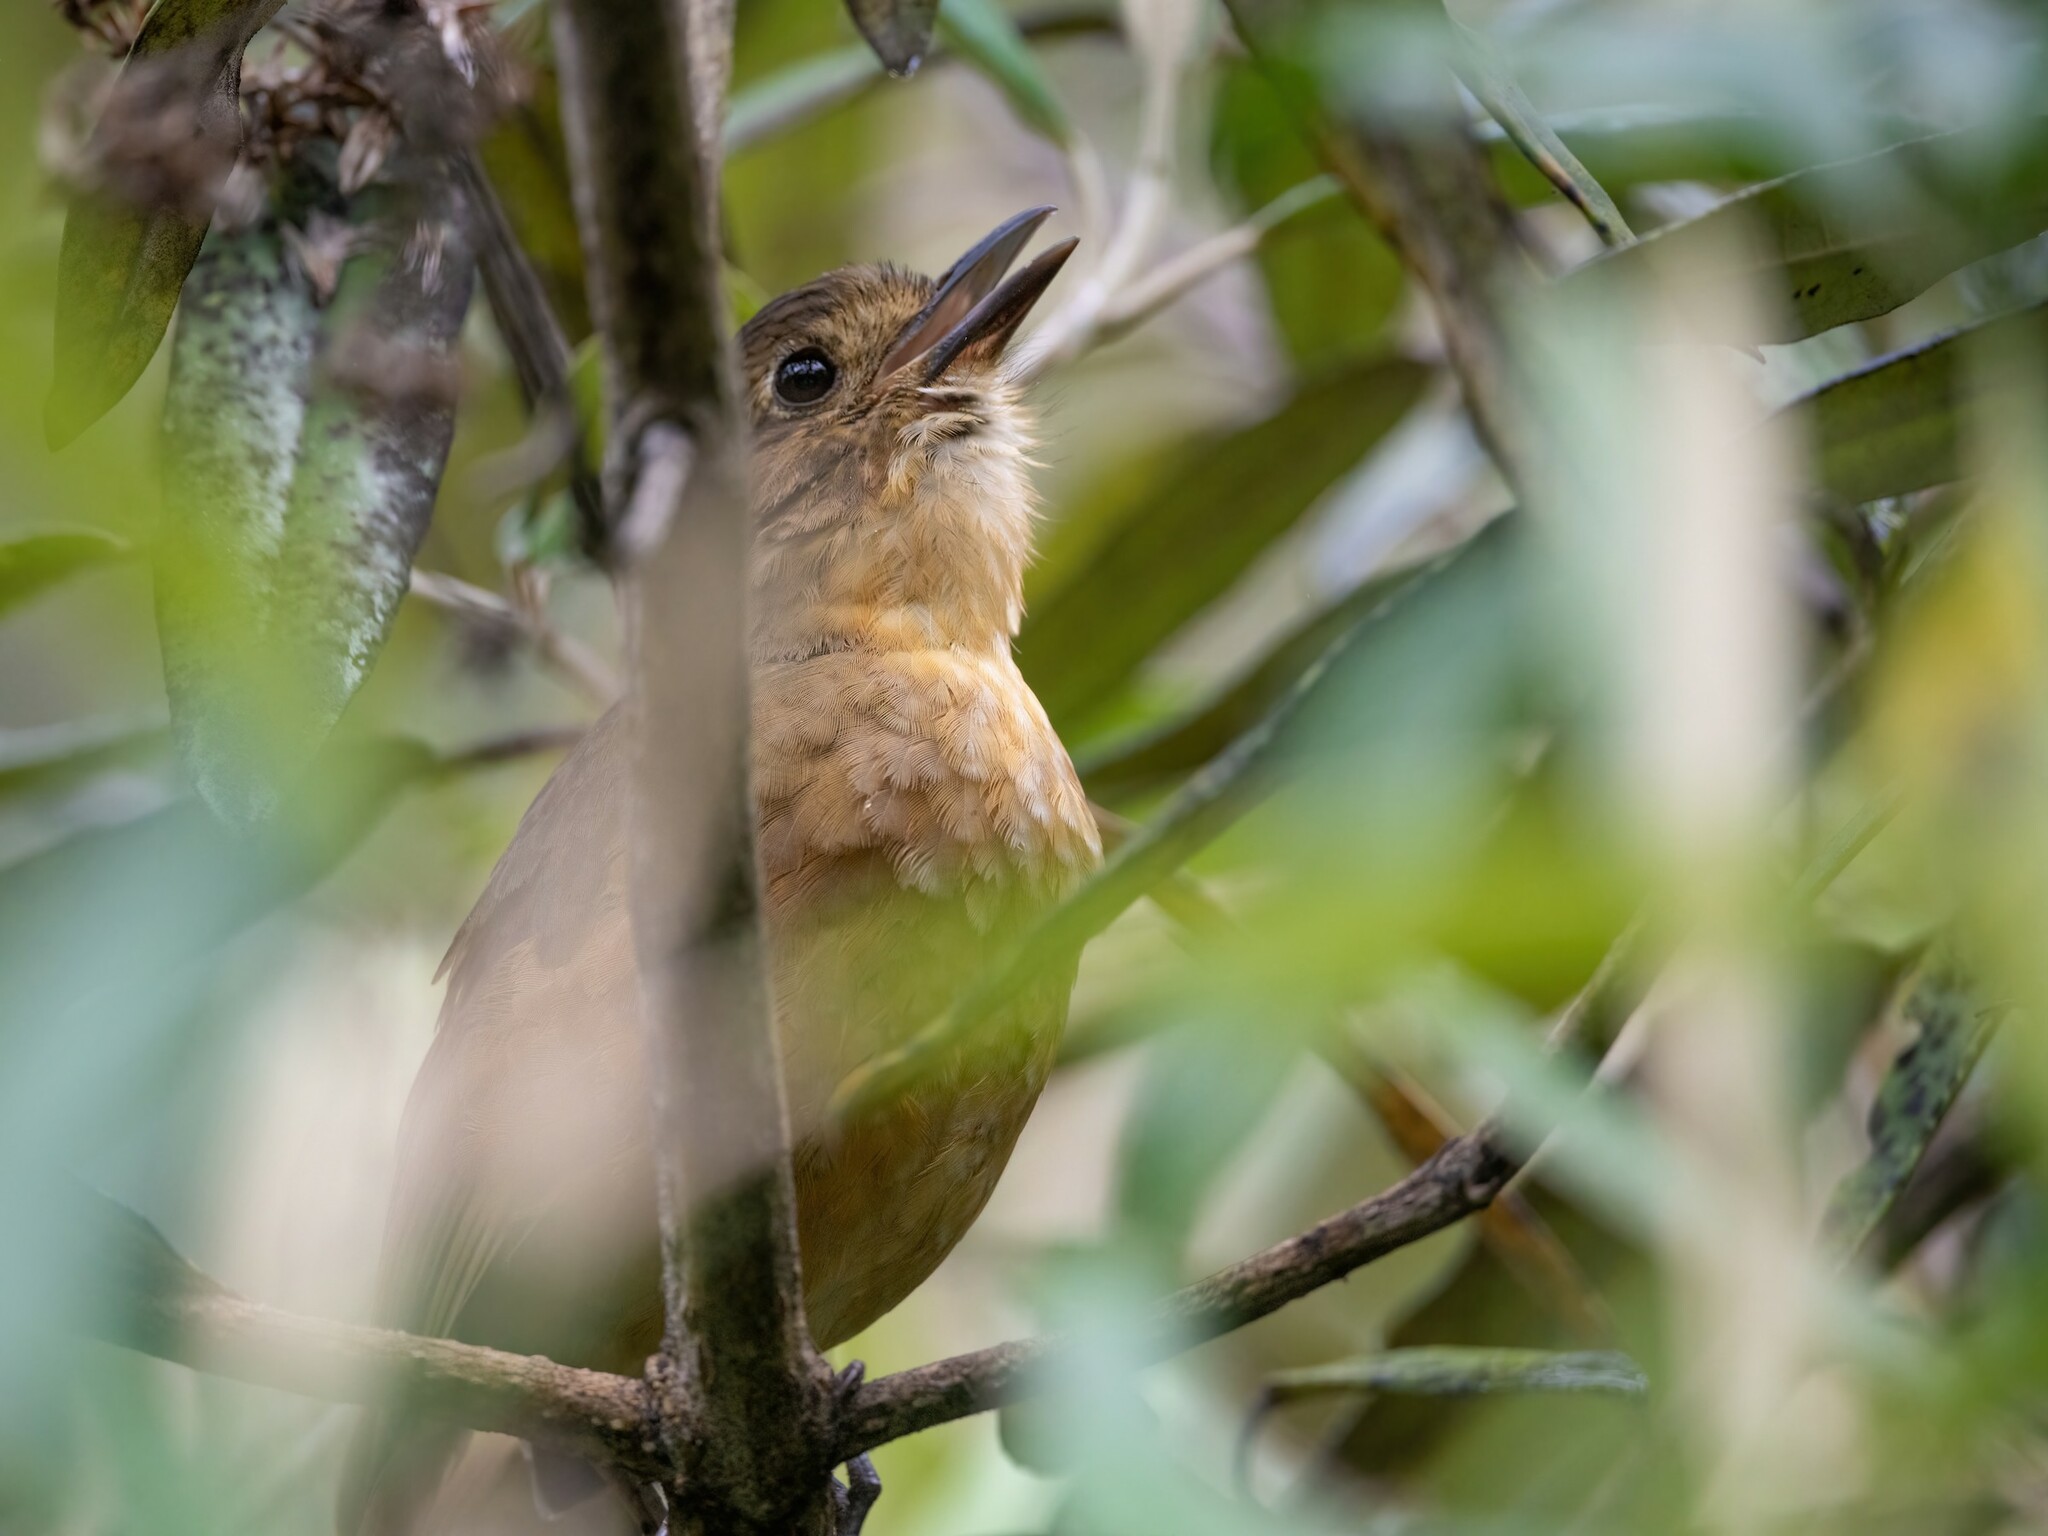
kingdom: Animalia
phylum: Chordata
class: Aves
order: Passeriformes
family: Grallariidae
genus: Grallaria
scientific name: Grallaria quitensis
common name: Tawny antpitta
